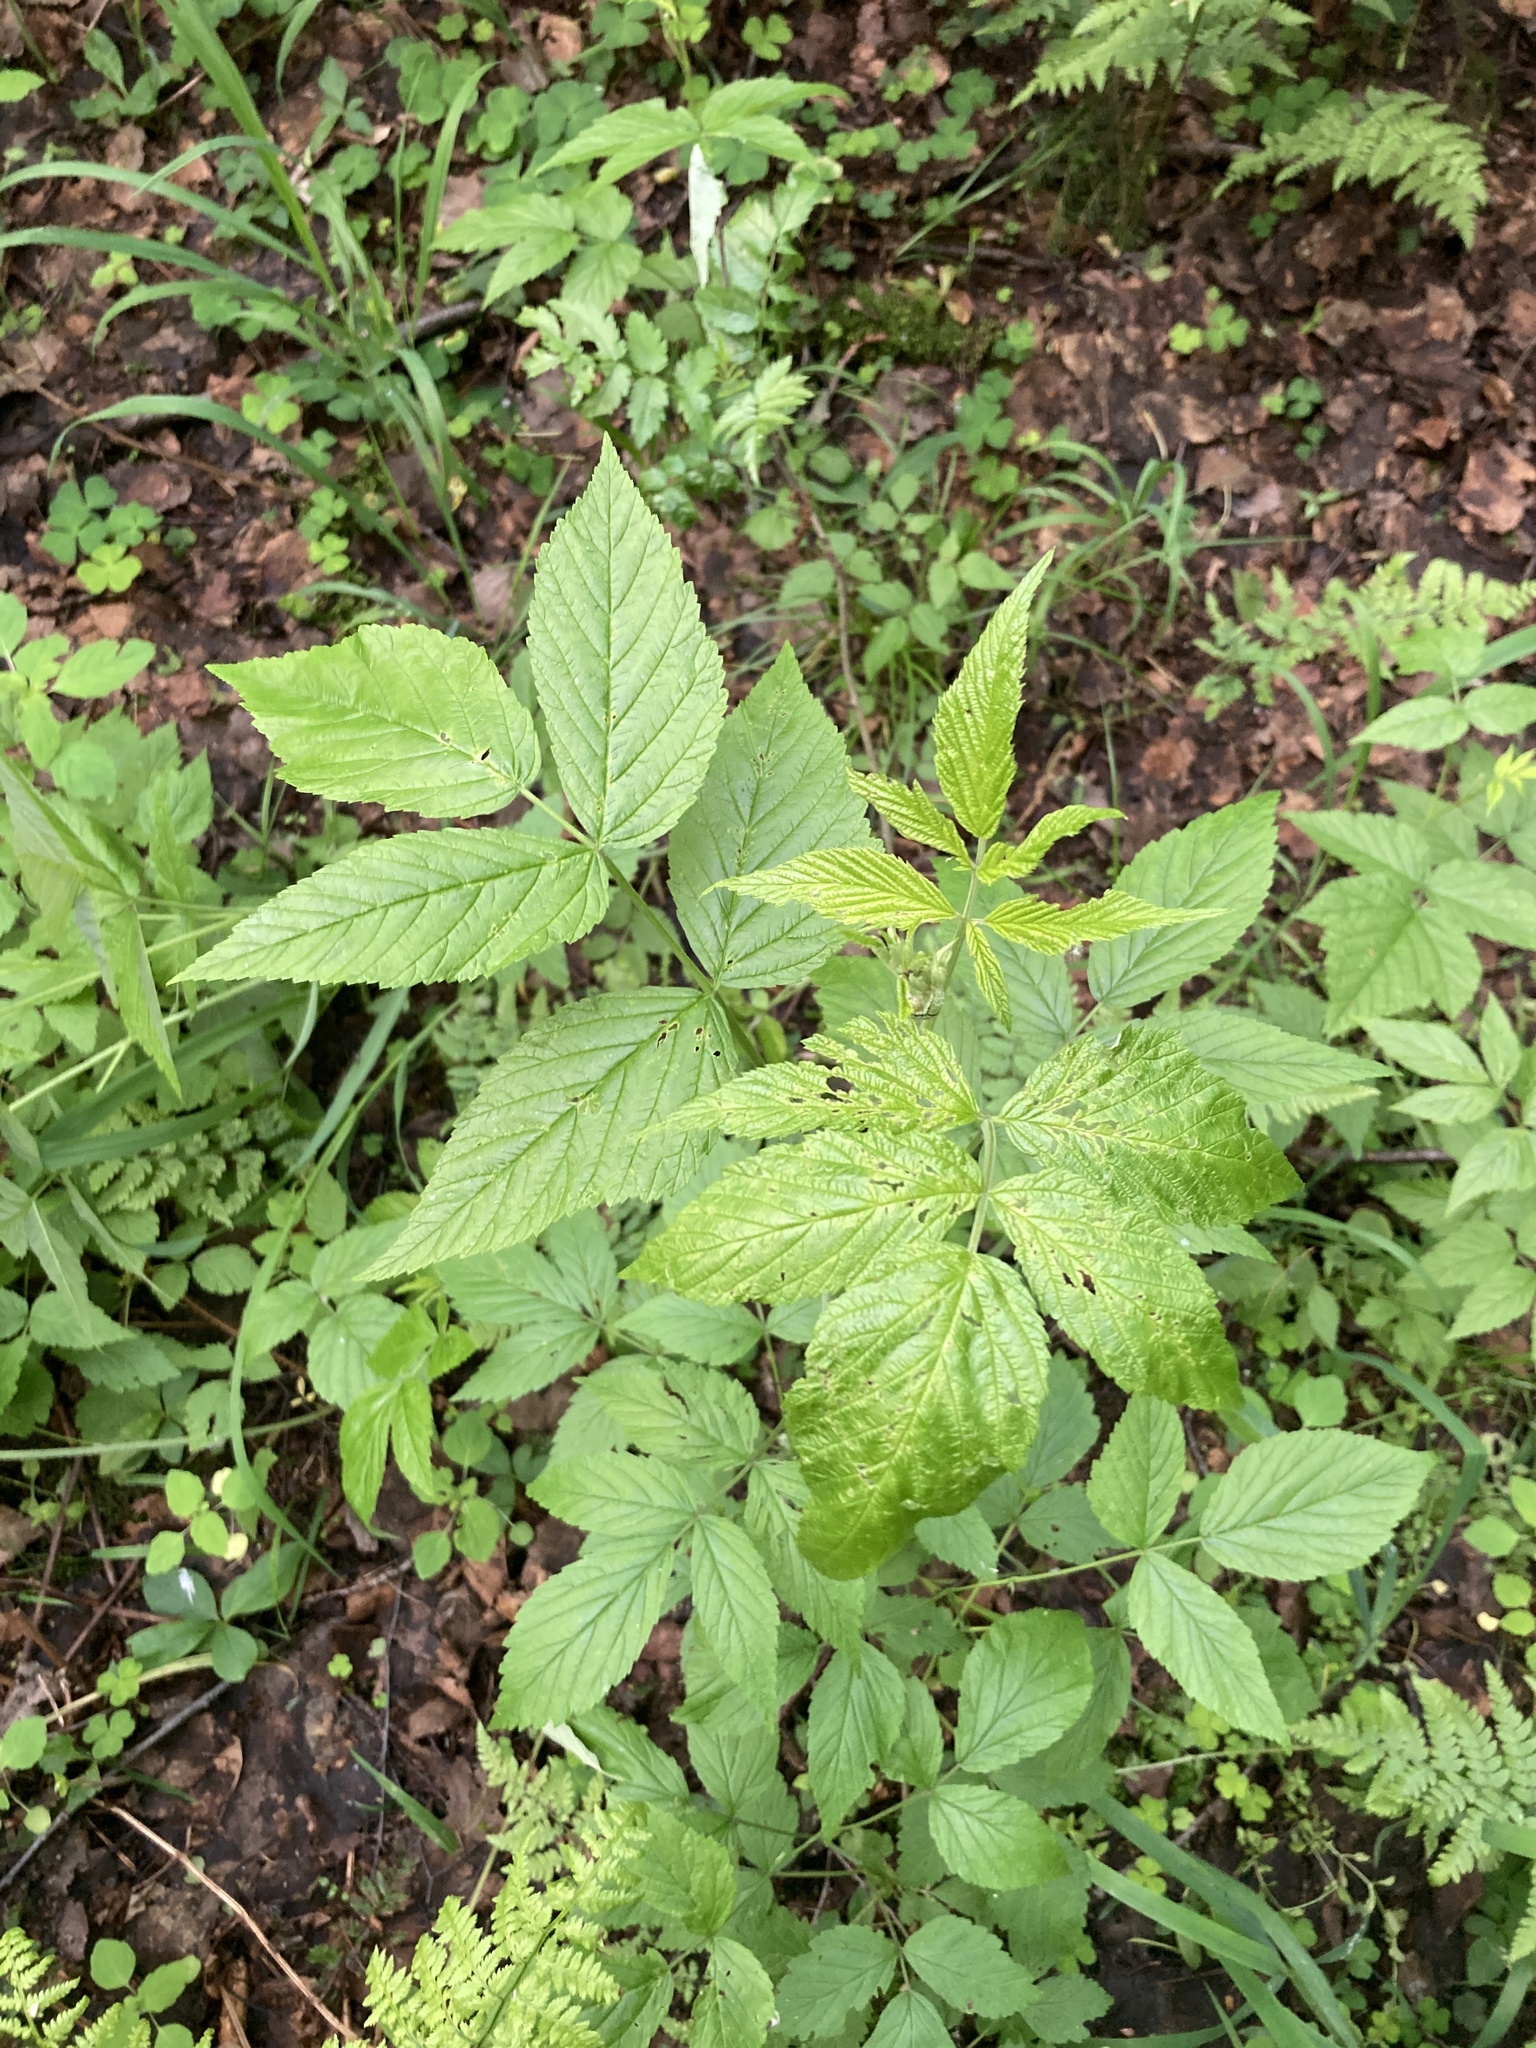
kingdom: Plantae
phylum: Tracheophyta
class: Magnoliopsida
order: Rosales
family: Rosaceae
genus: Rubus
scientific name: Rubus idaeus
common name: Raspberry
